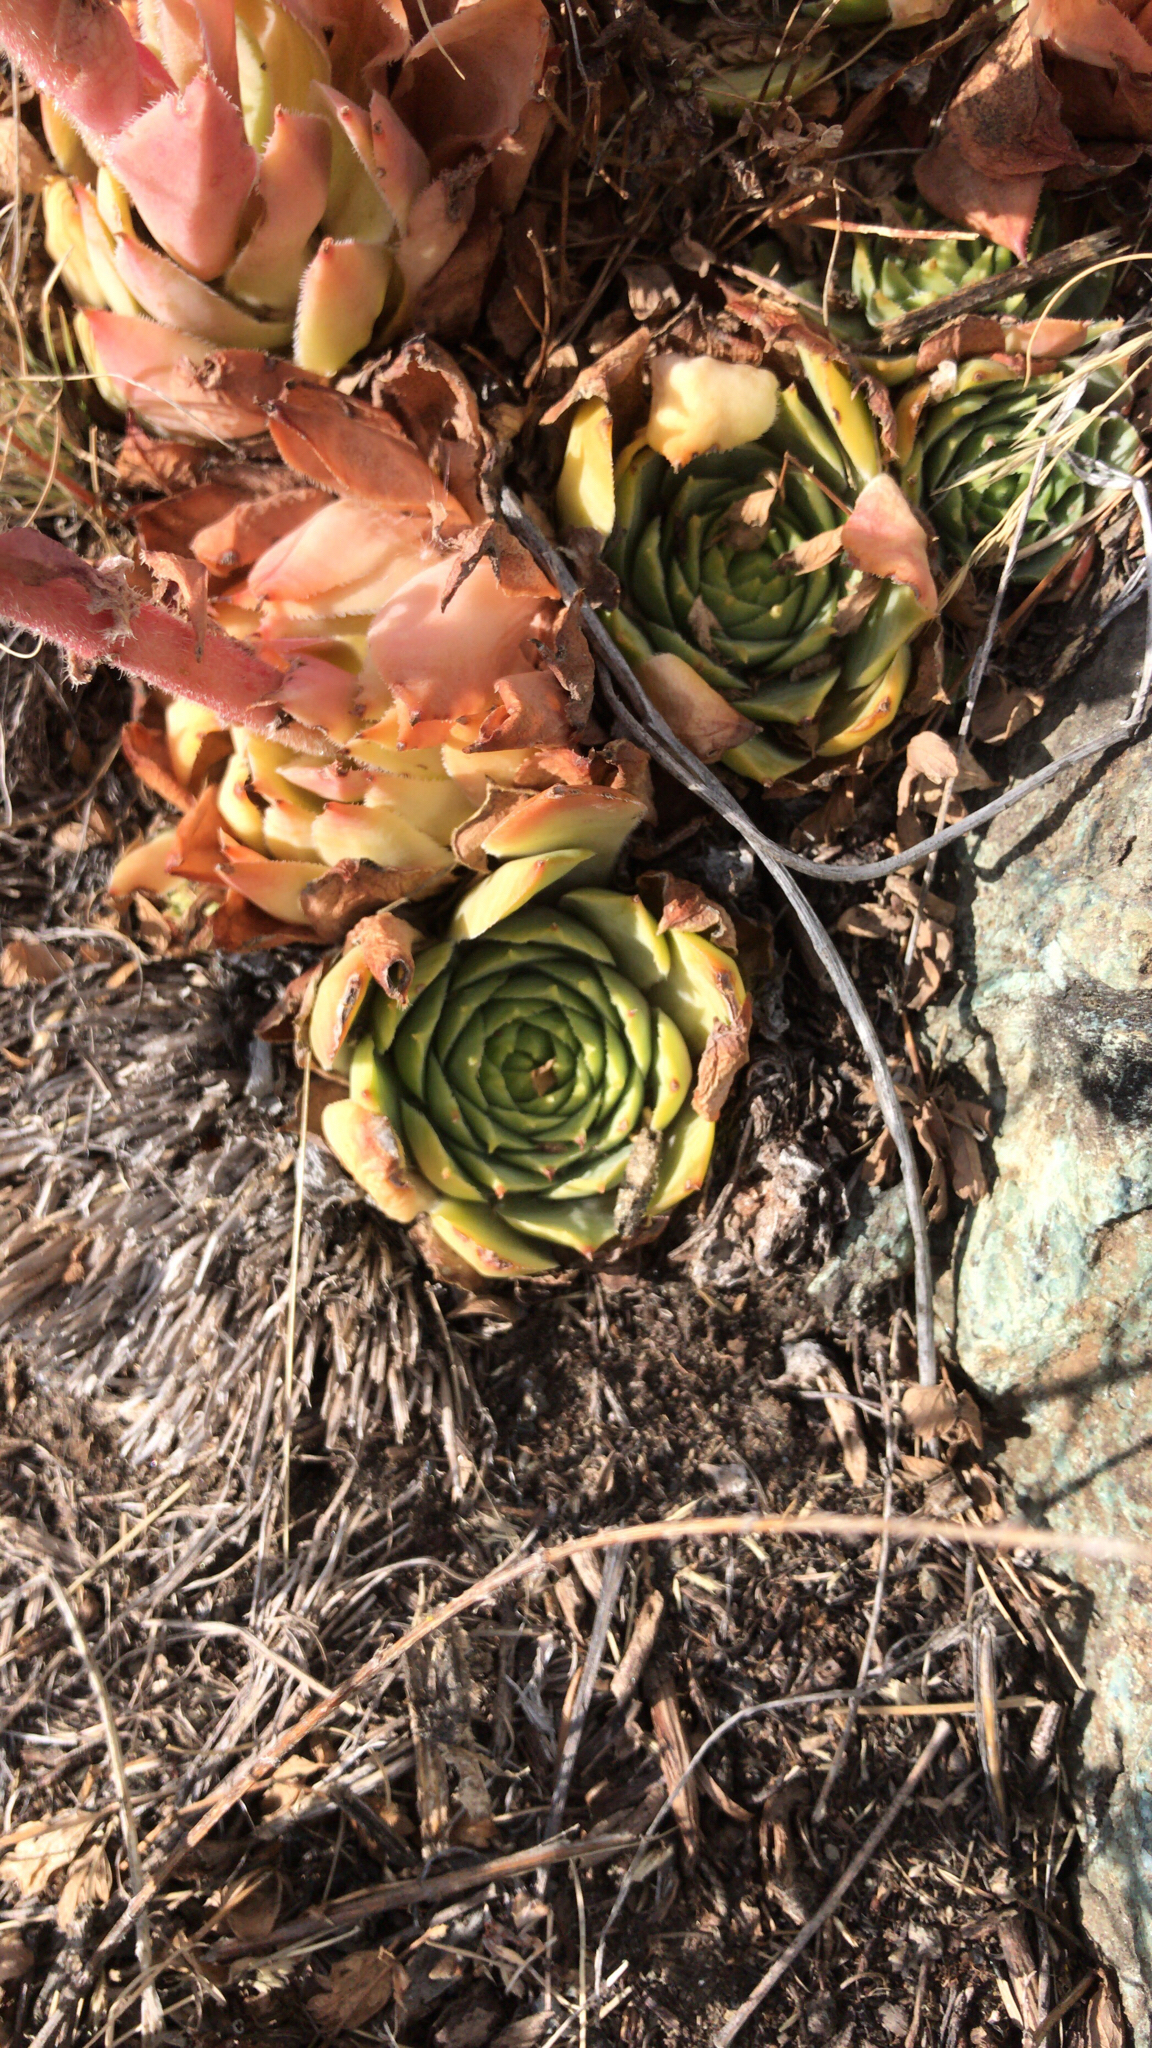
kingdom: Plantae
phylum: Tracheophyta
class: Magnoliopsida
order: Saxifragales
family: Crassulaceae
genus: Sempervivum
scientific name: Sempervivum tectorum
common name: House-leek
